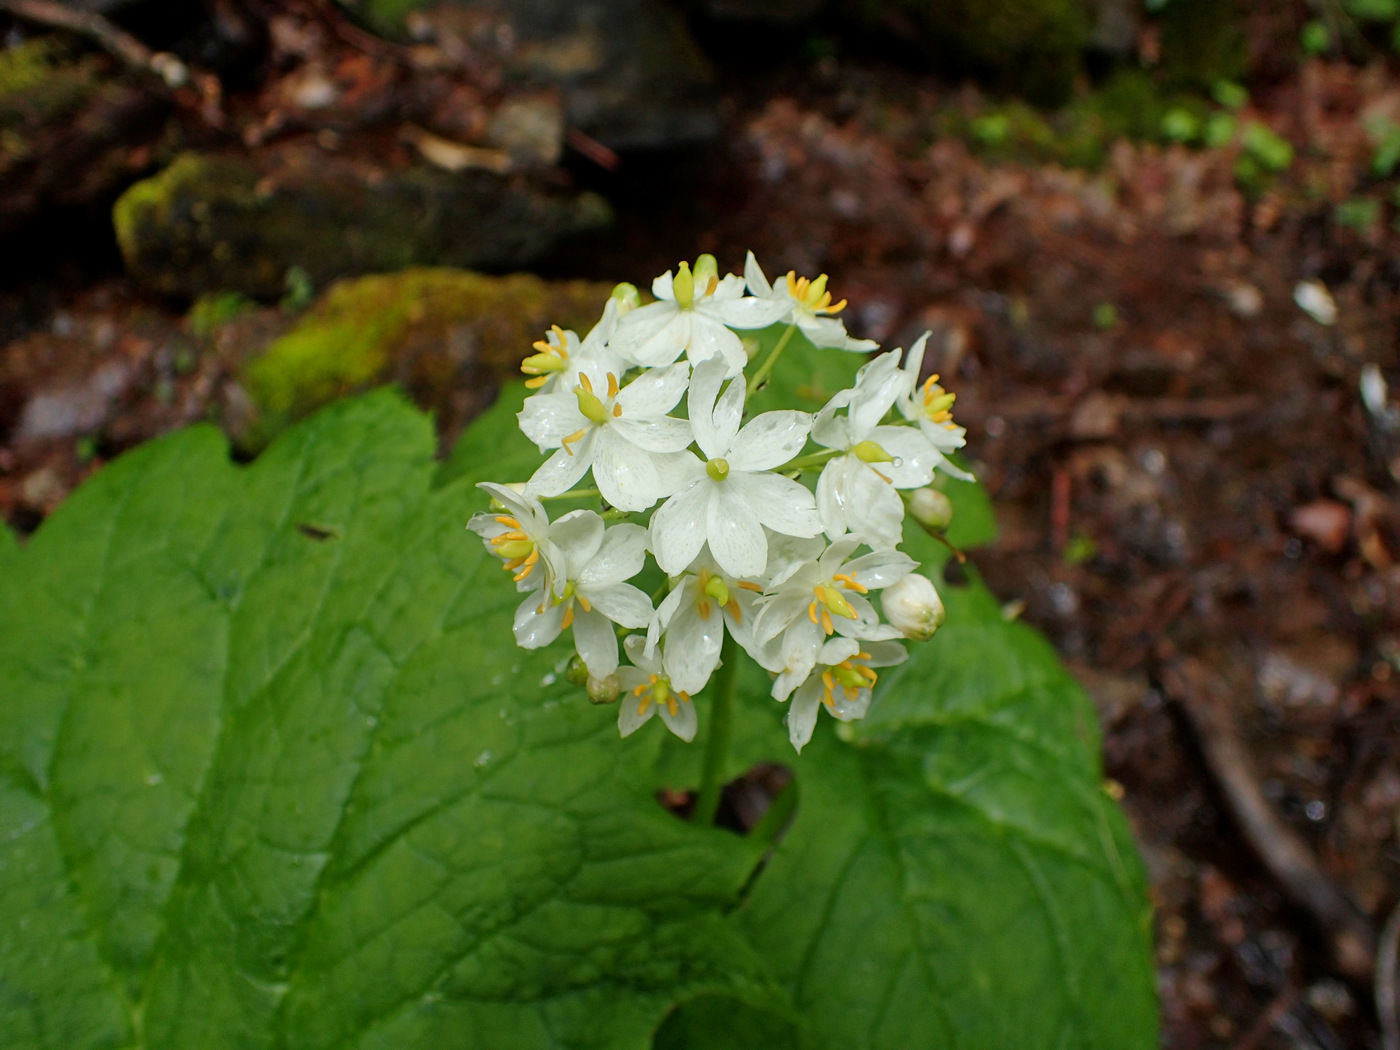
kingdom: Plantae
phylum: Tracheophyta
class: Magnoliopsida
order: Ranunculales
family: Berberidaceae
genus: Diphylleia
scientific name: Diphylleia cymosa
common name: Umbrella-leaf
